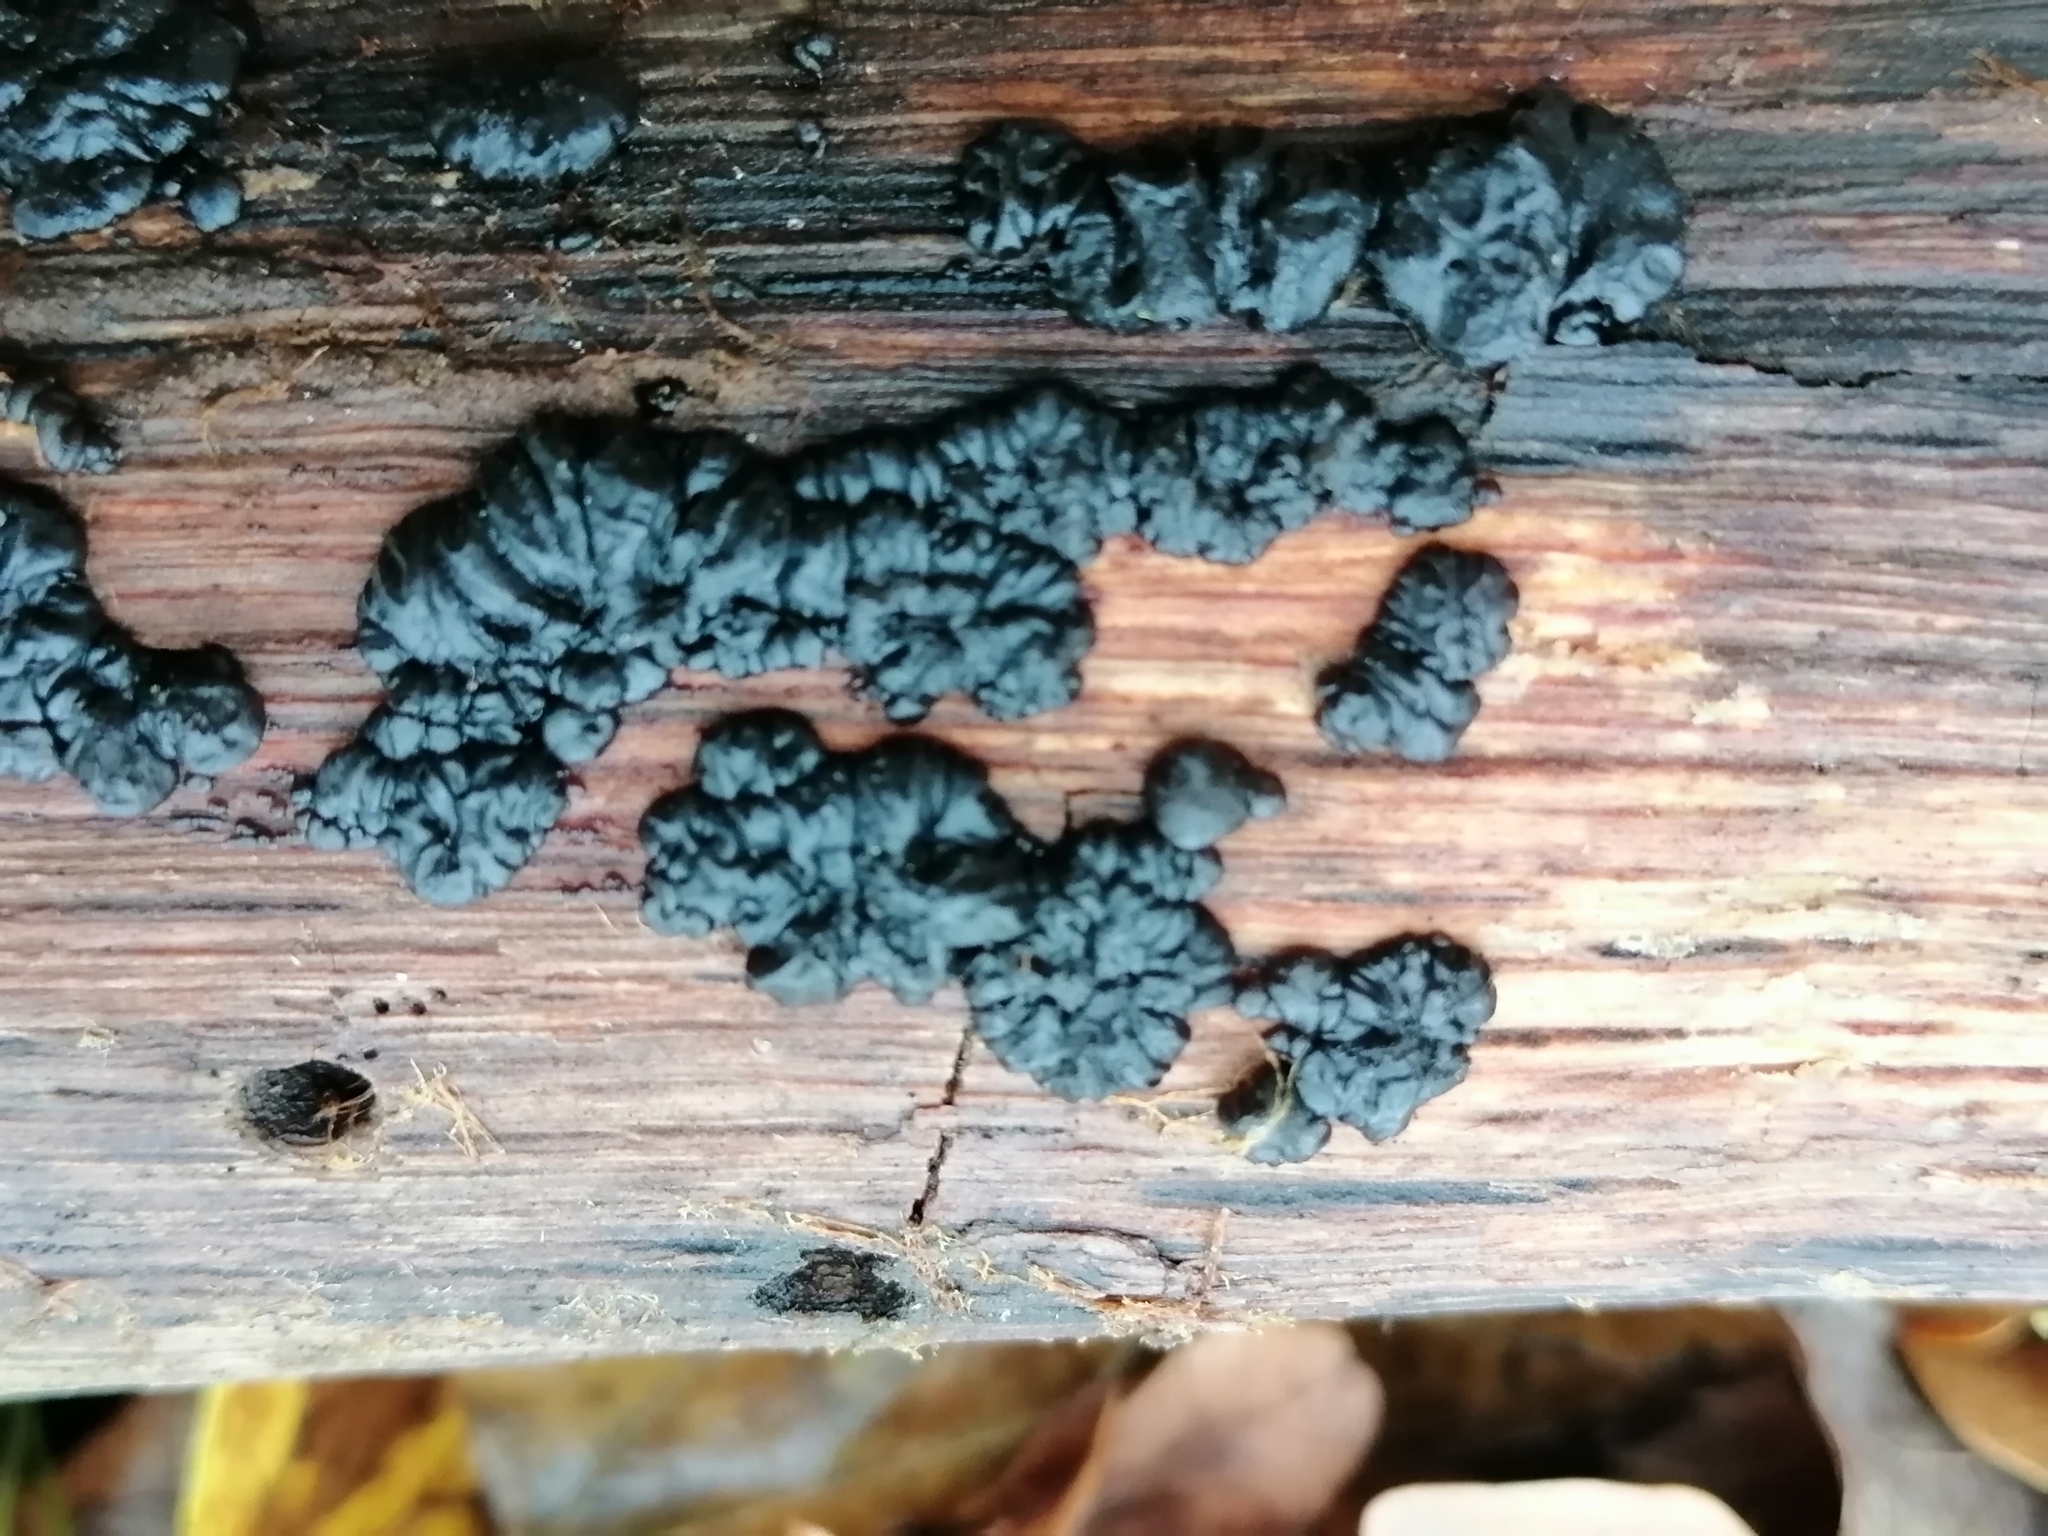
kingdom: Fungi
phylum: Basidiomycota
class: Agaricomycetes
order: Auriculariales
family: Auriculariaceae
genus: Exidia
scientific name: Exidia nigricans
